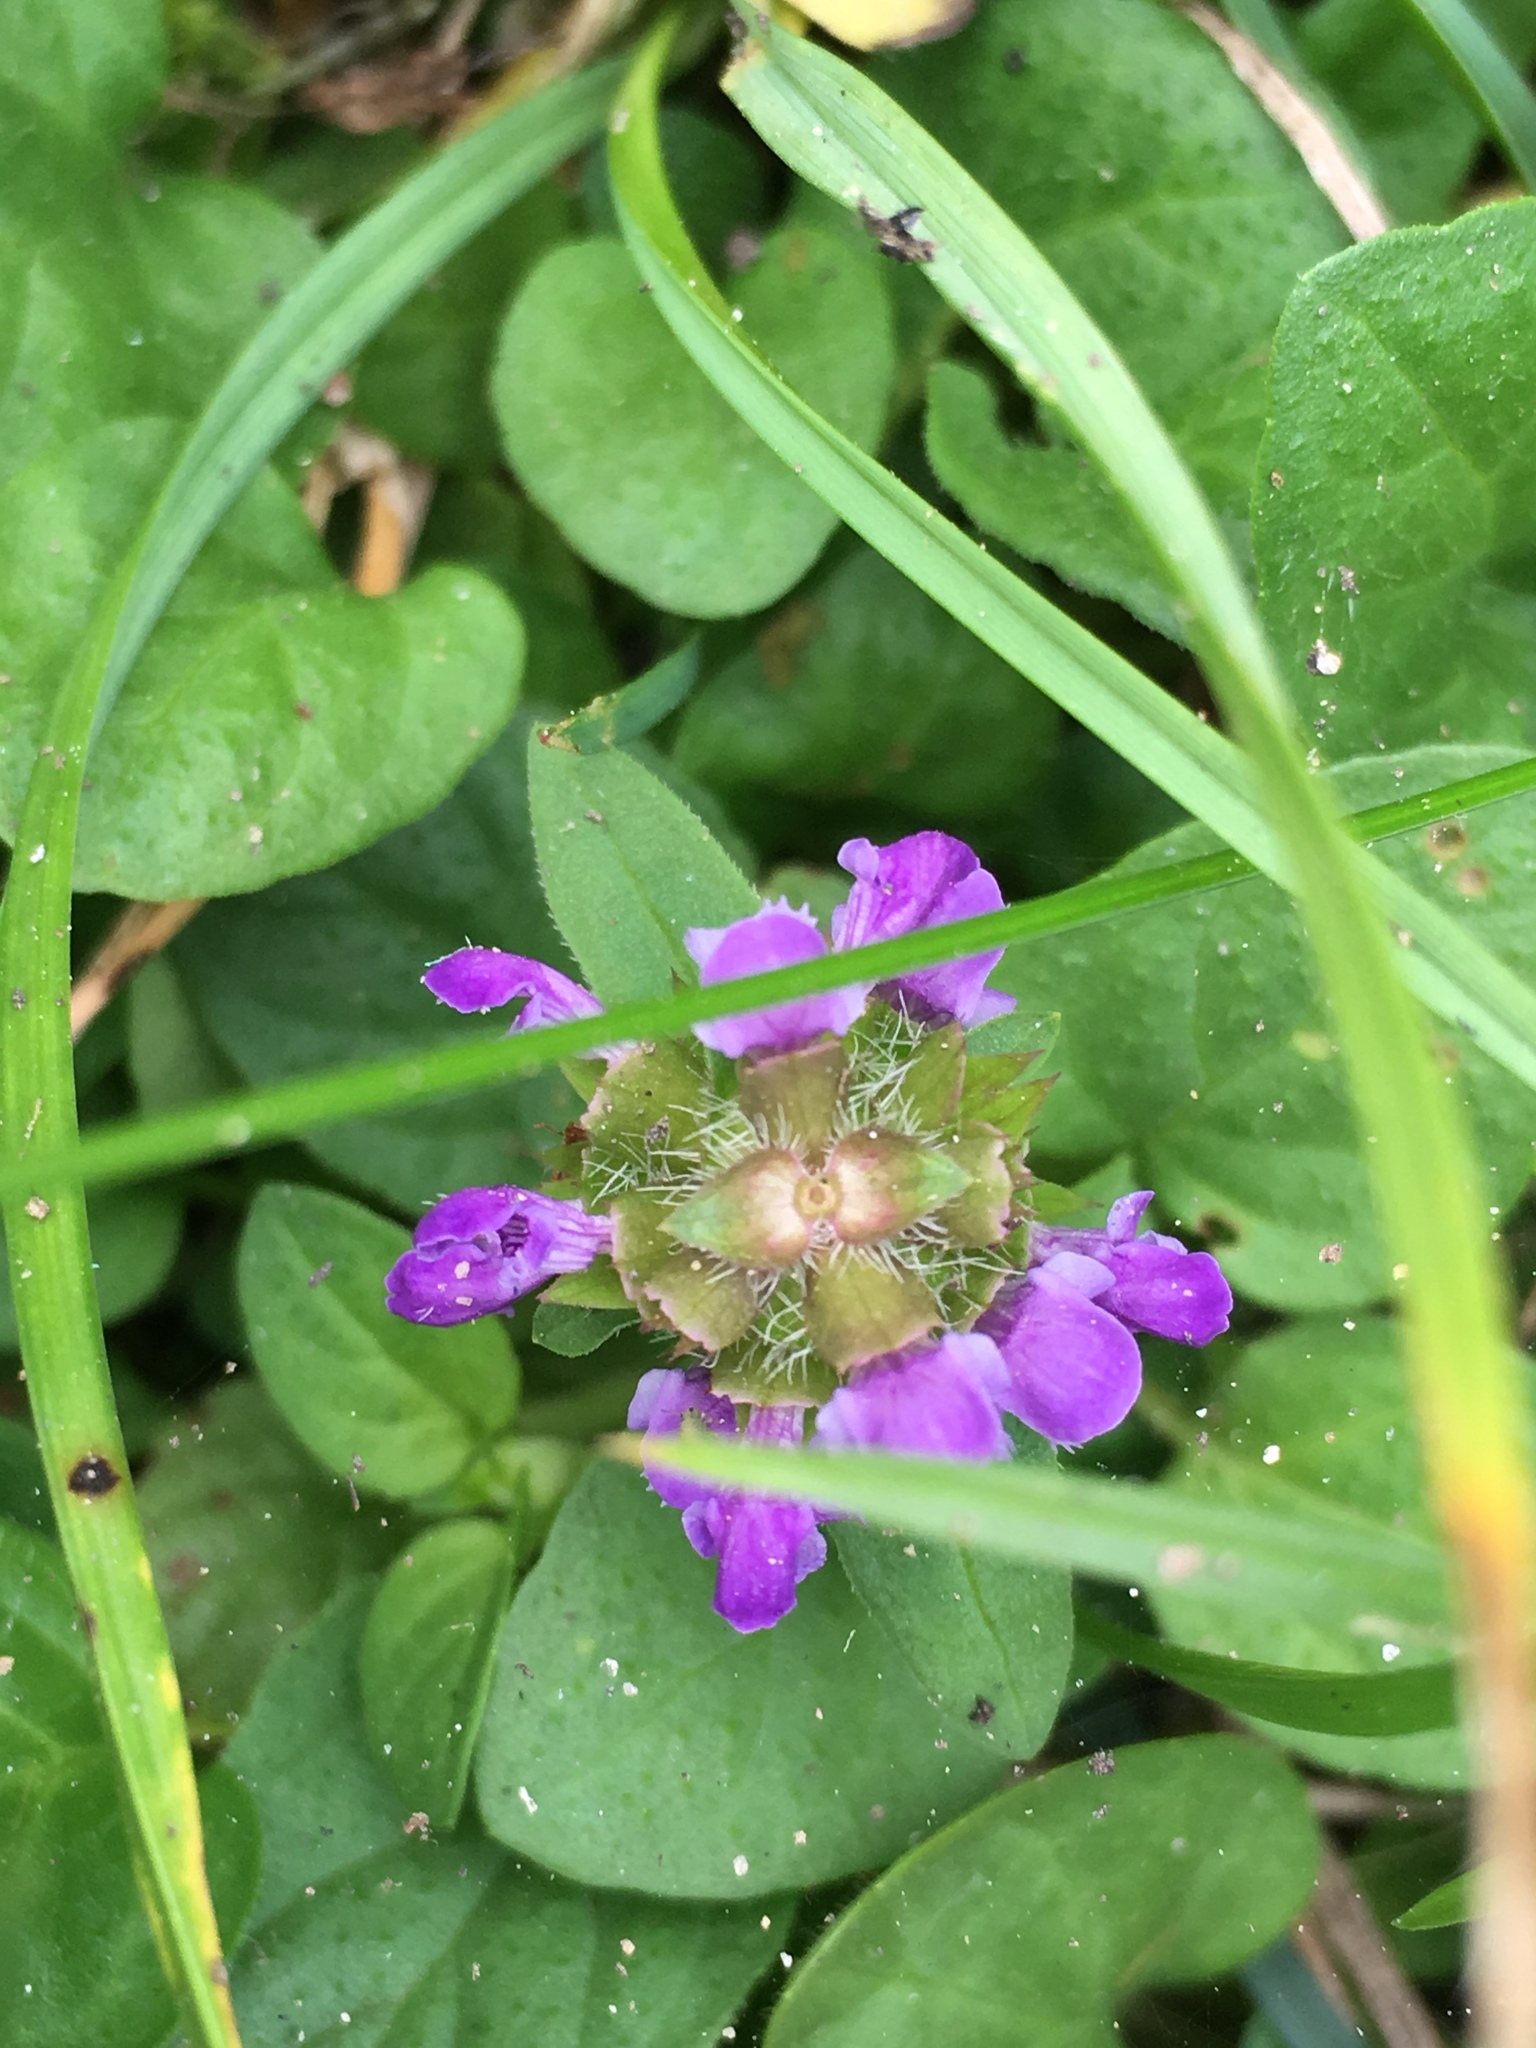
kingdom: Plantae
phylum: Tracheophyta
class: Magnoliopsida
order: Lamiales
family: Lamiaceae
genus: Prunella
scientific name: Prunella vulgaris
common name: Heal-all
